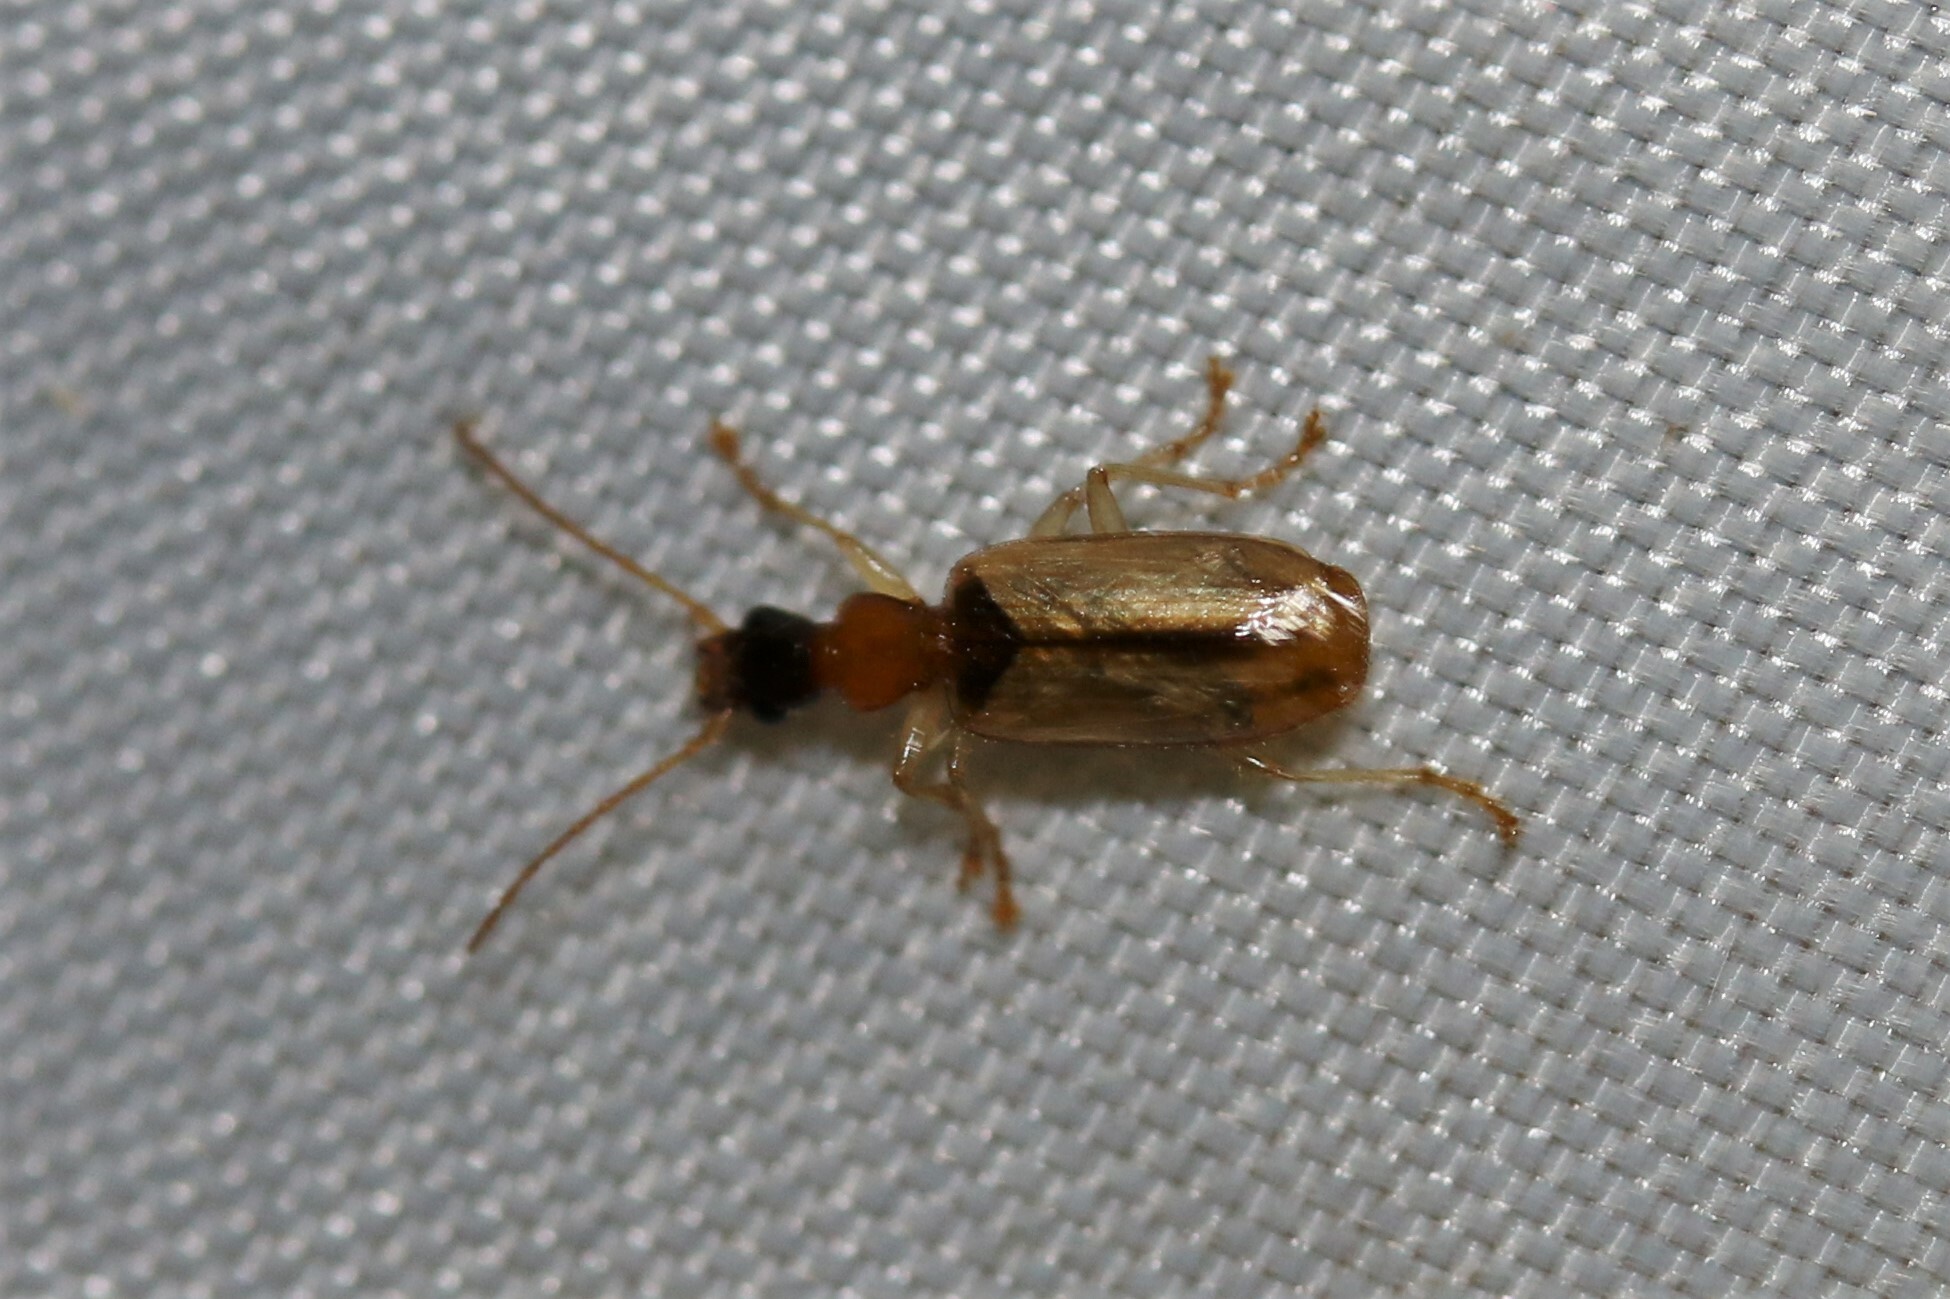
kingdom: Animalia
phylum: Arthropoda
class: Insecta
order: Coleoptera
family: Carabidae
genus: Demetrias
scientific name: Demetrias atricapillus
